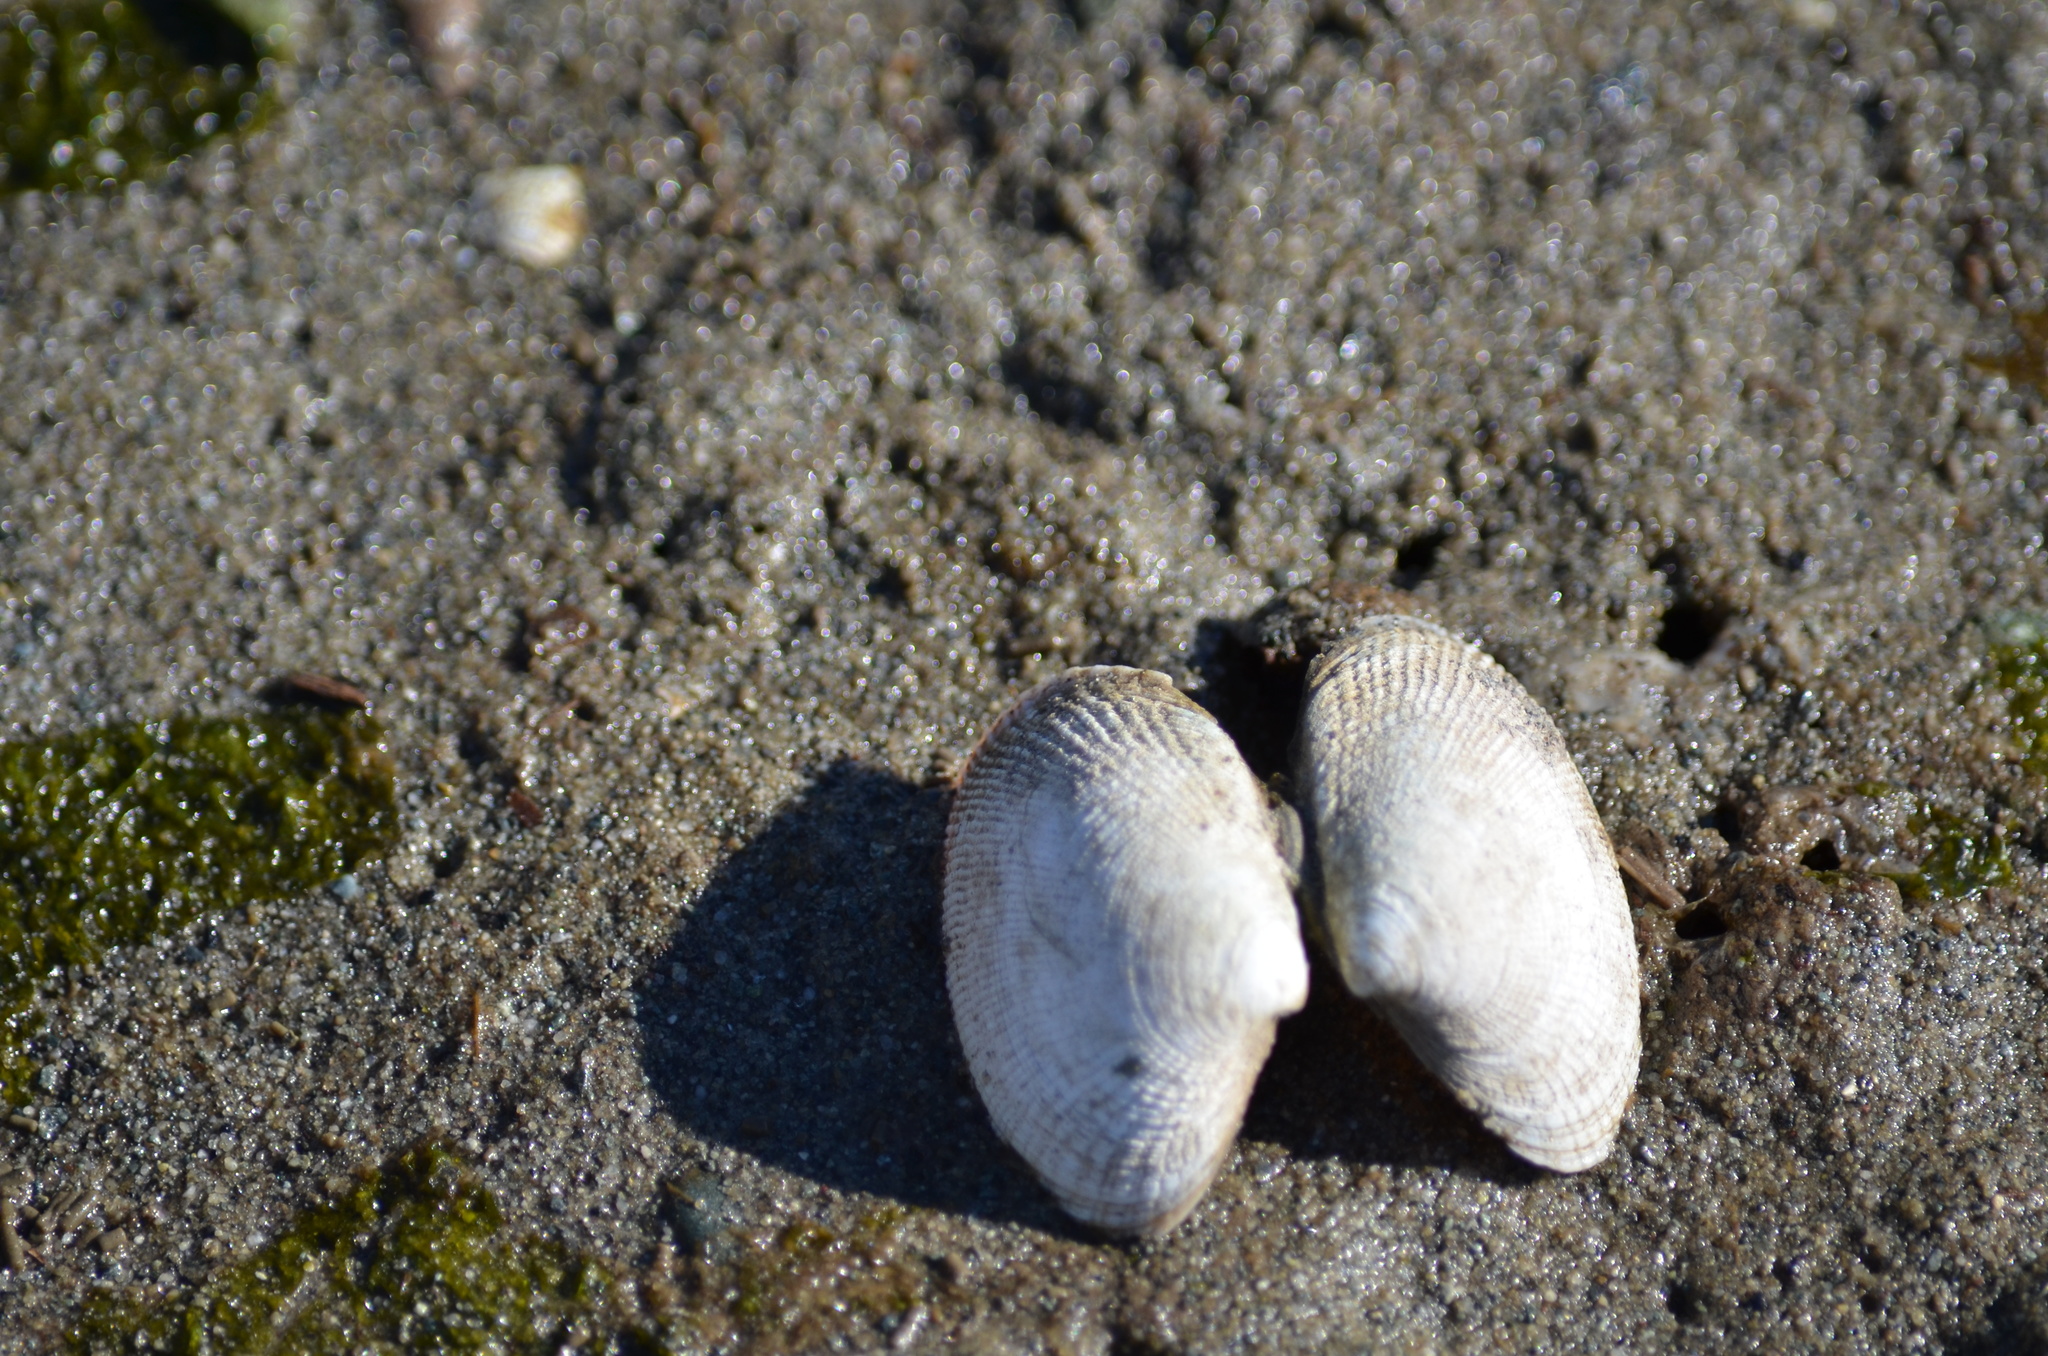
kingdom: Animalia
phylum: Mollusca
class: Bivalvia
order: Venerida
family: Veneridae
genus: Ruditapes
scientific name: Ruditapes philippinarum
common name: Manila clam
